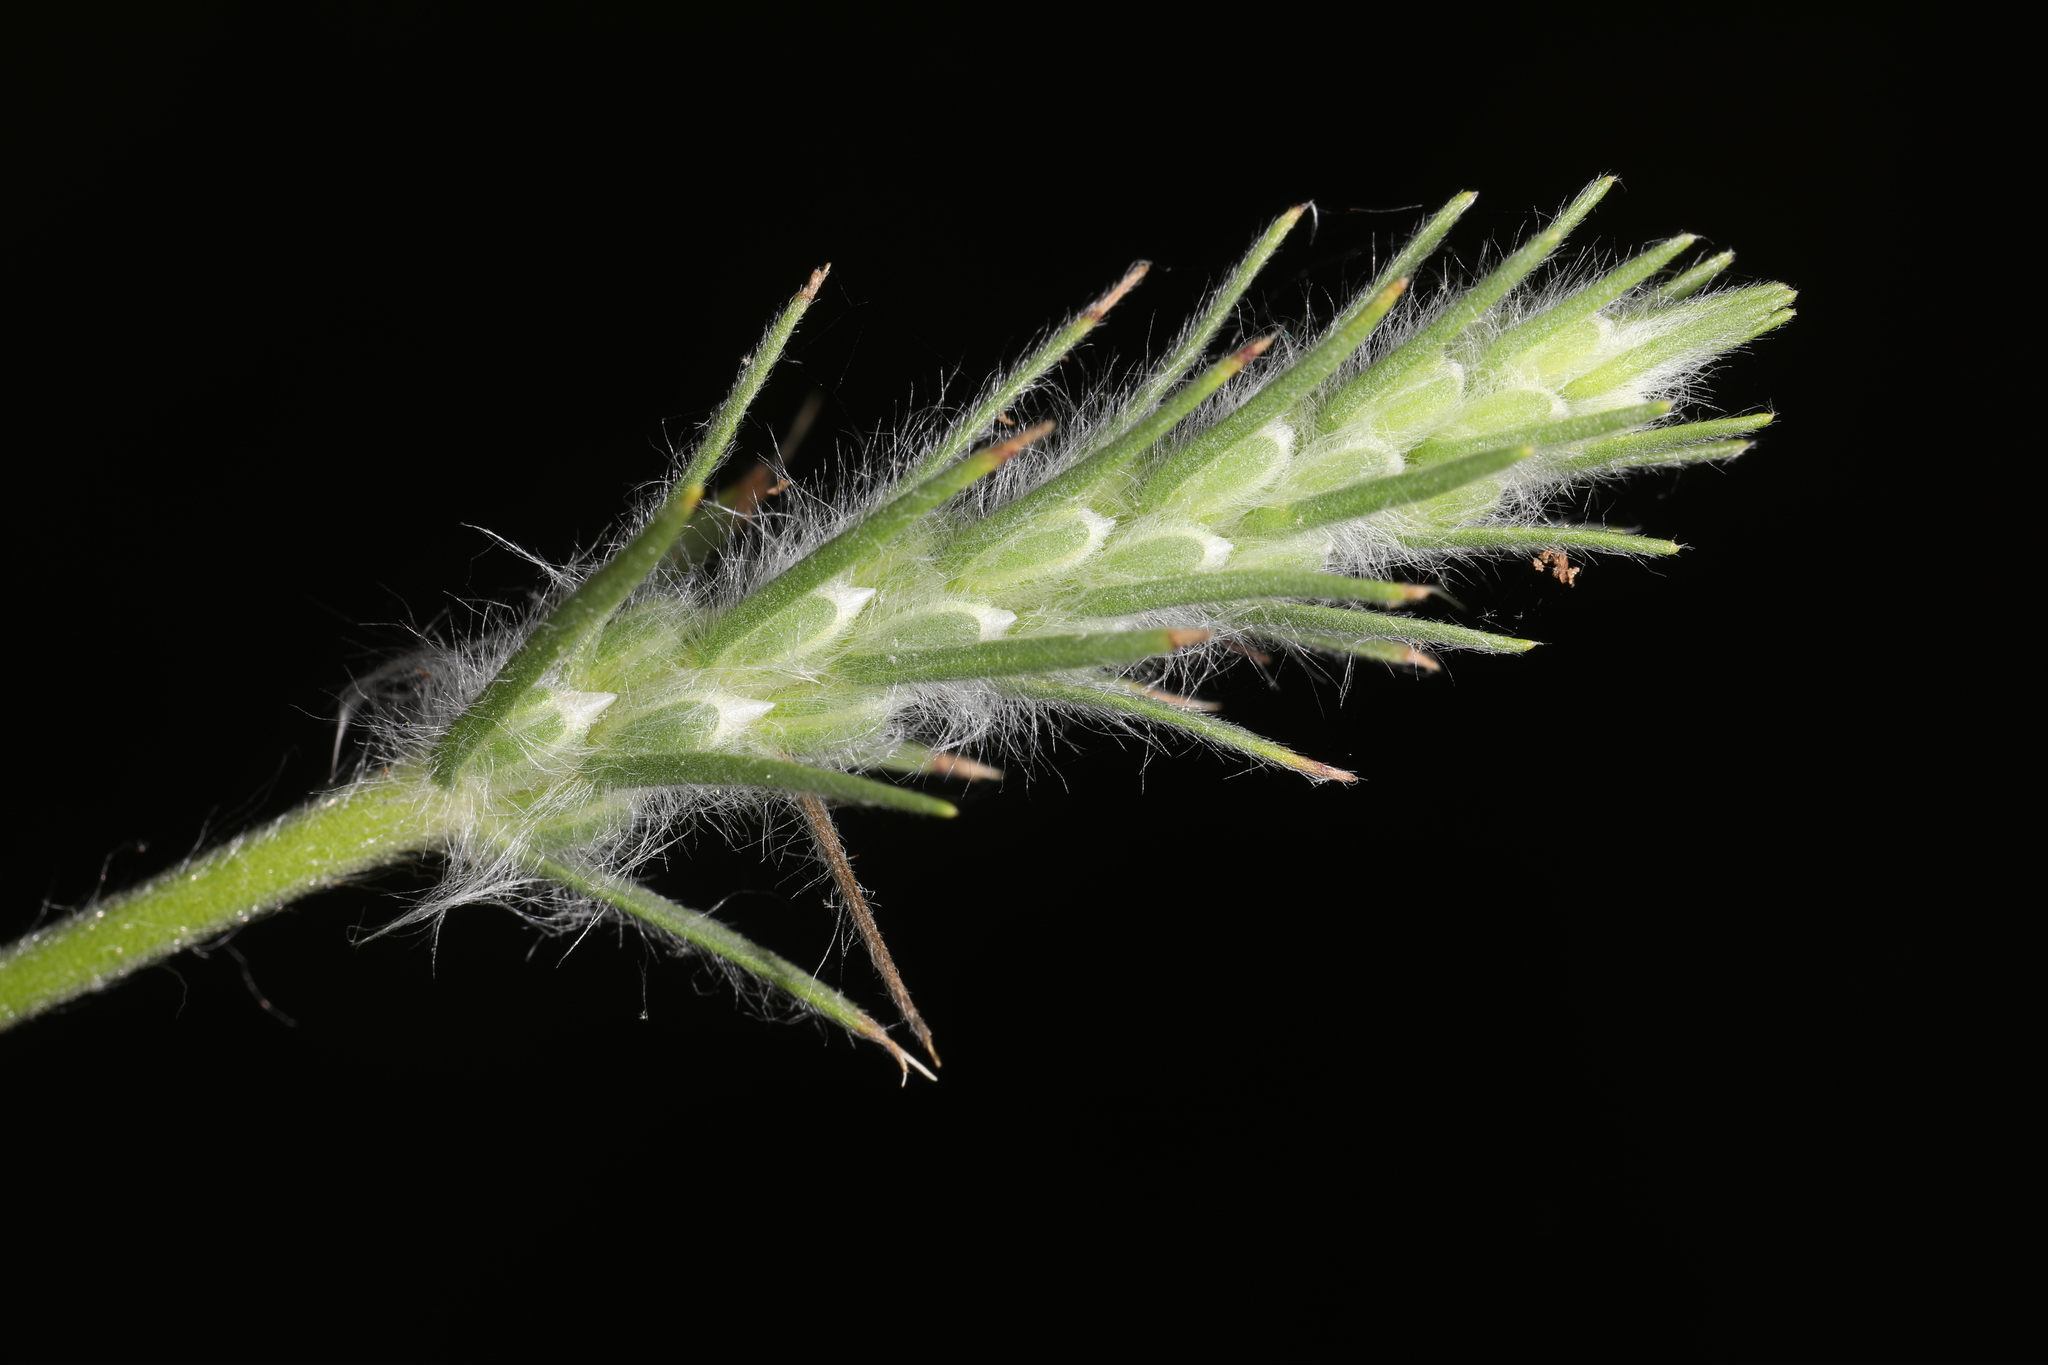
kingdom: Plantae
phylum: Tracheophyta
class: Magnoliopsida
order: Lamiales
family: Plantaginaceae
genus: Plantago
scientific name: Plantago aristata
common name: Bracted plantain
